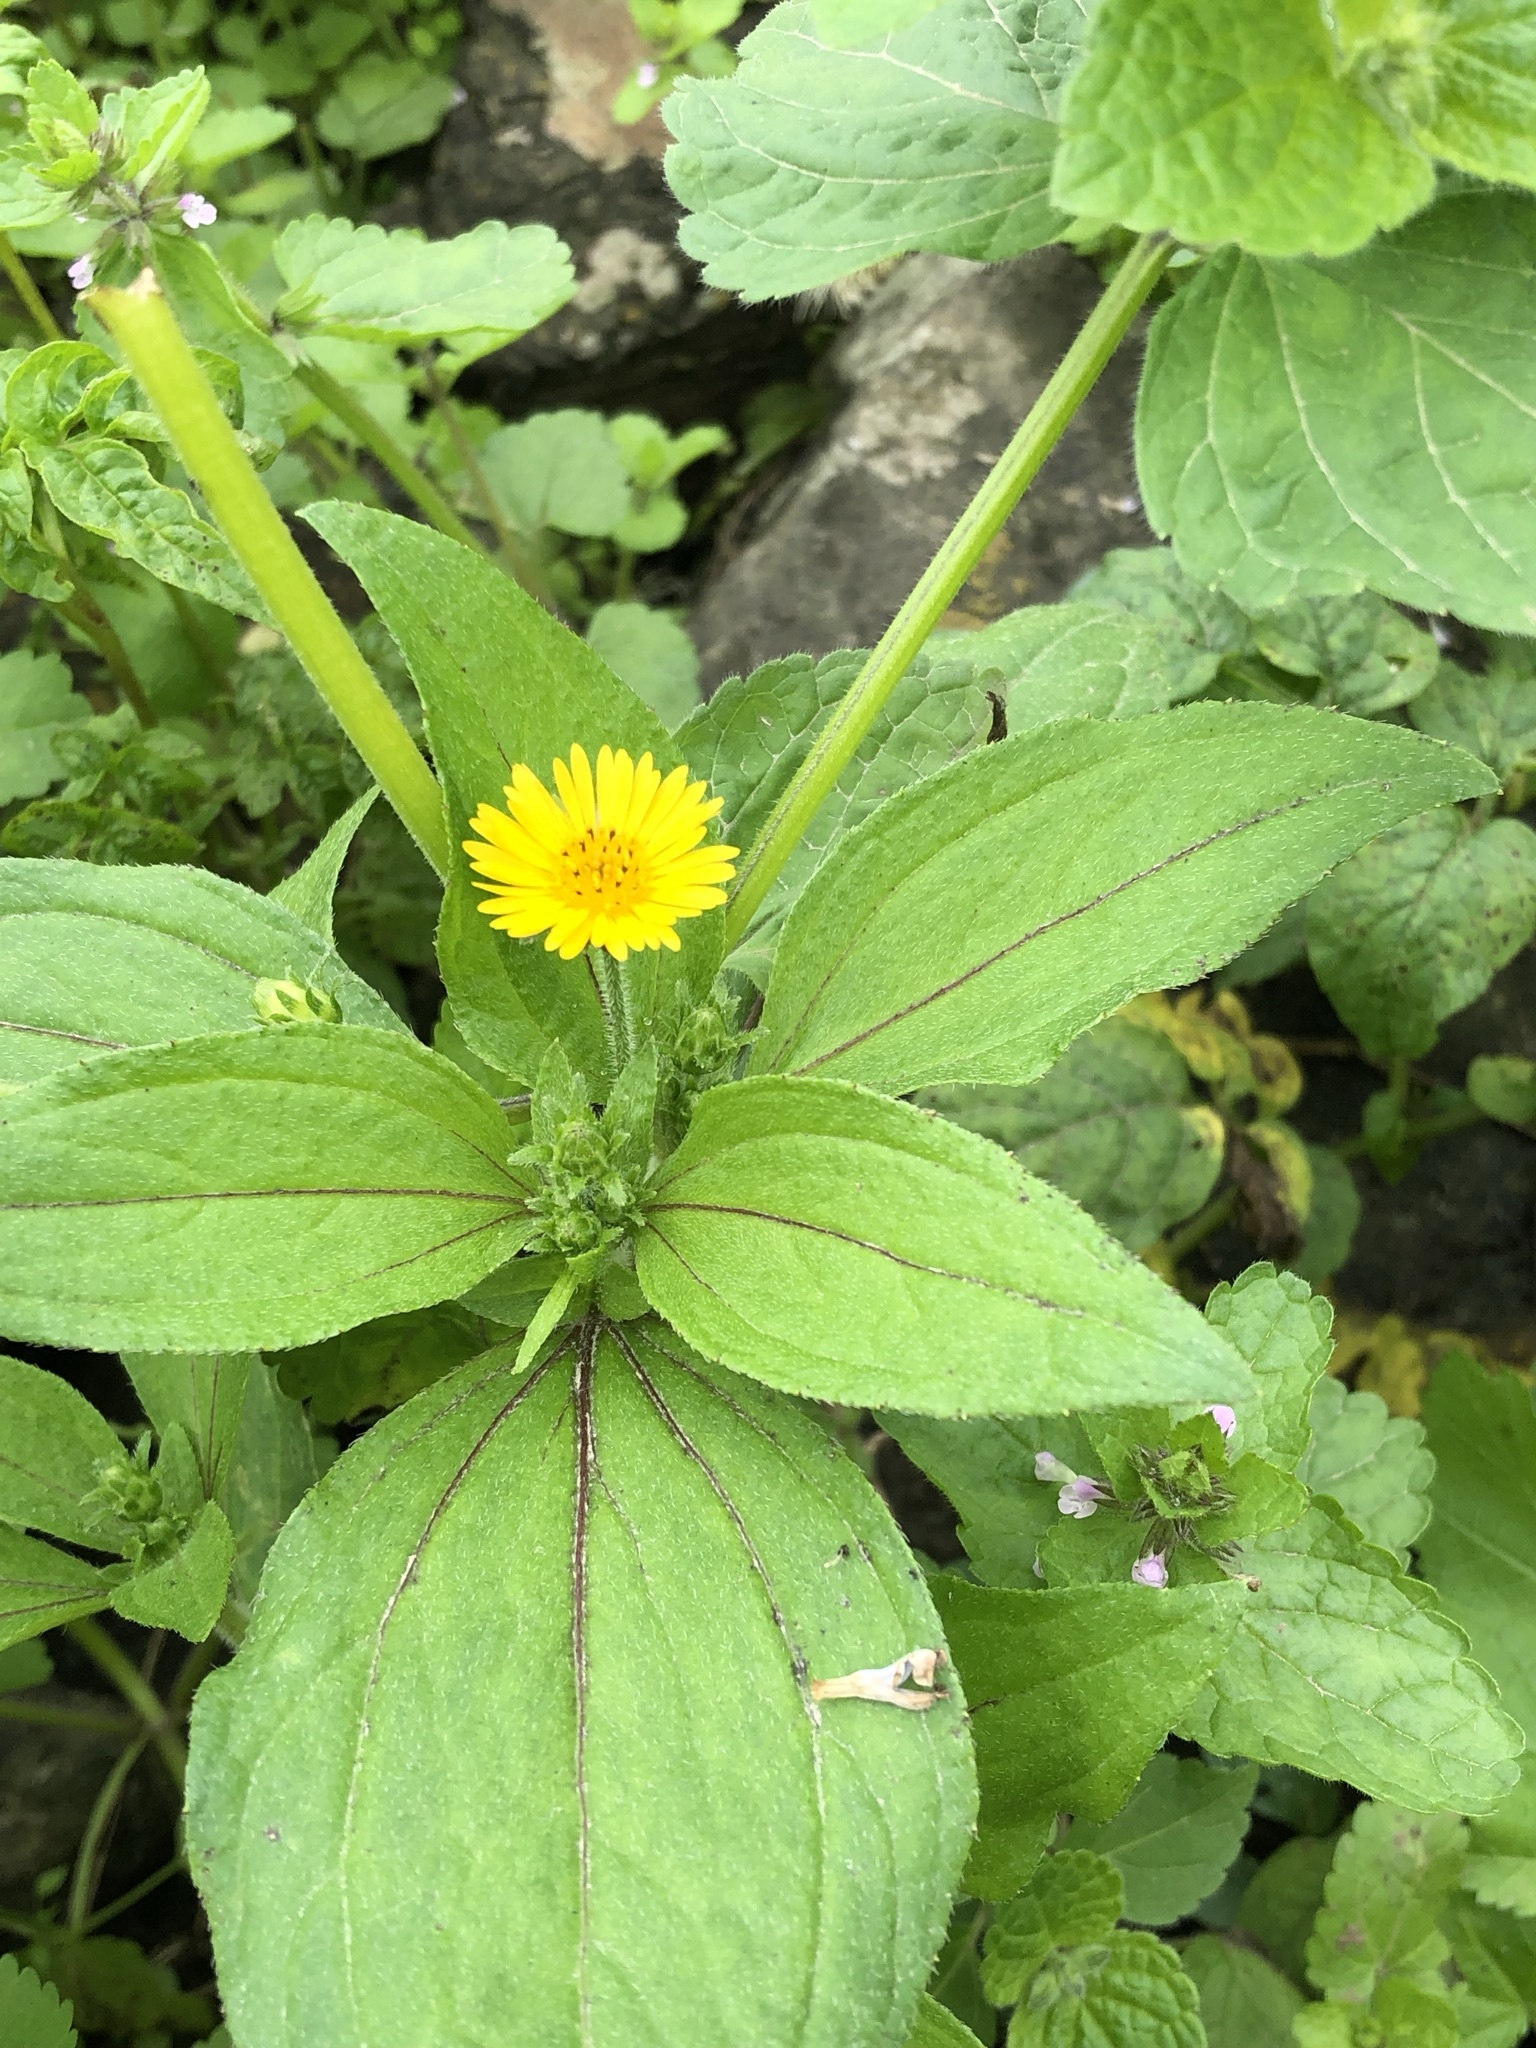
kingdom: Plantae
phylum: Tracheophyta
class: Magnoliopsida
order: Asterales
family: Asteraceae
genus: Philoglossa
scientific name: Philoglossa peruviana
